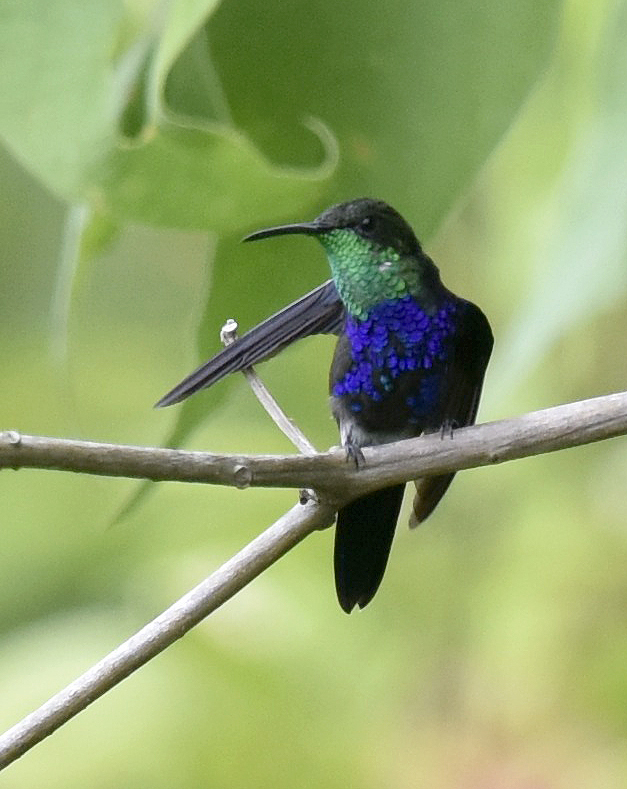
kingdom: Animalia
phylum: Chordata
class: Aves
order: Apodiformes
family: Trochilidae
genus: Thalurania
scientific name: Thalurania furcata
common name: Fork-tailed woodnymph
